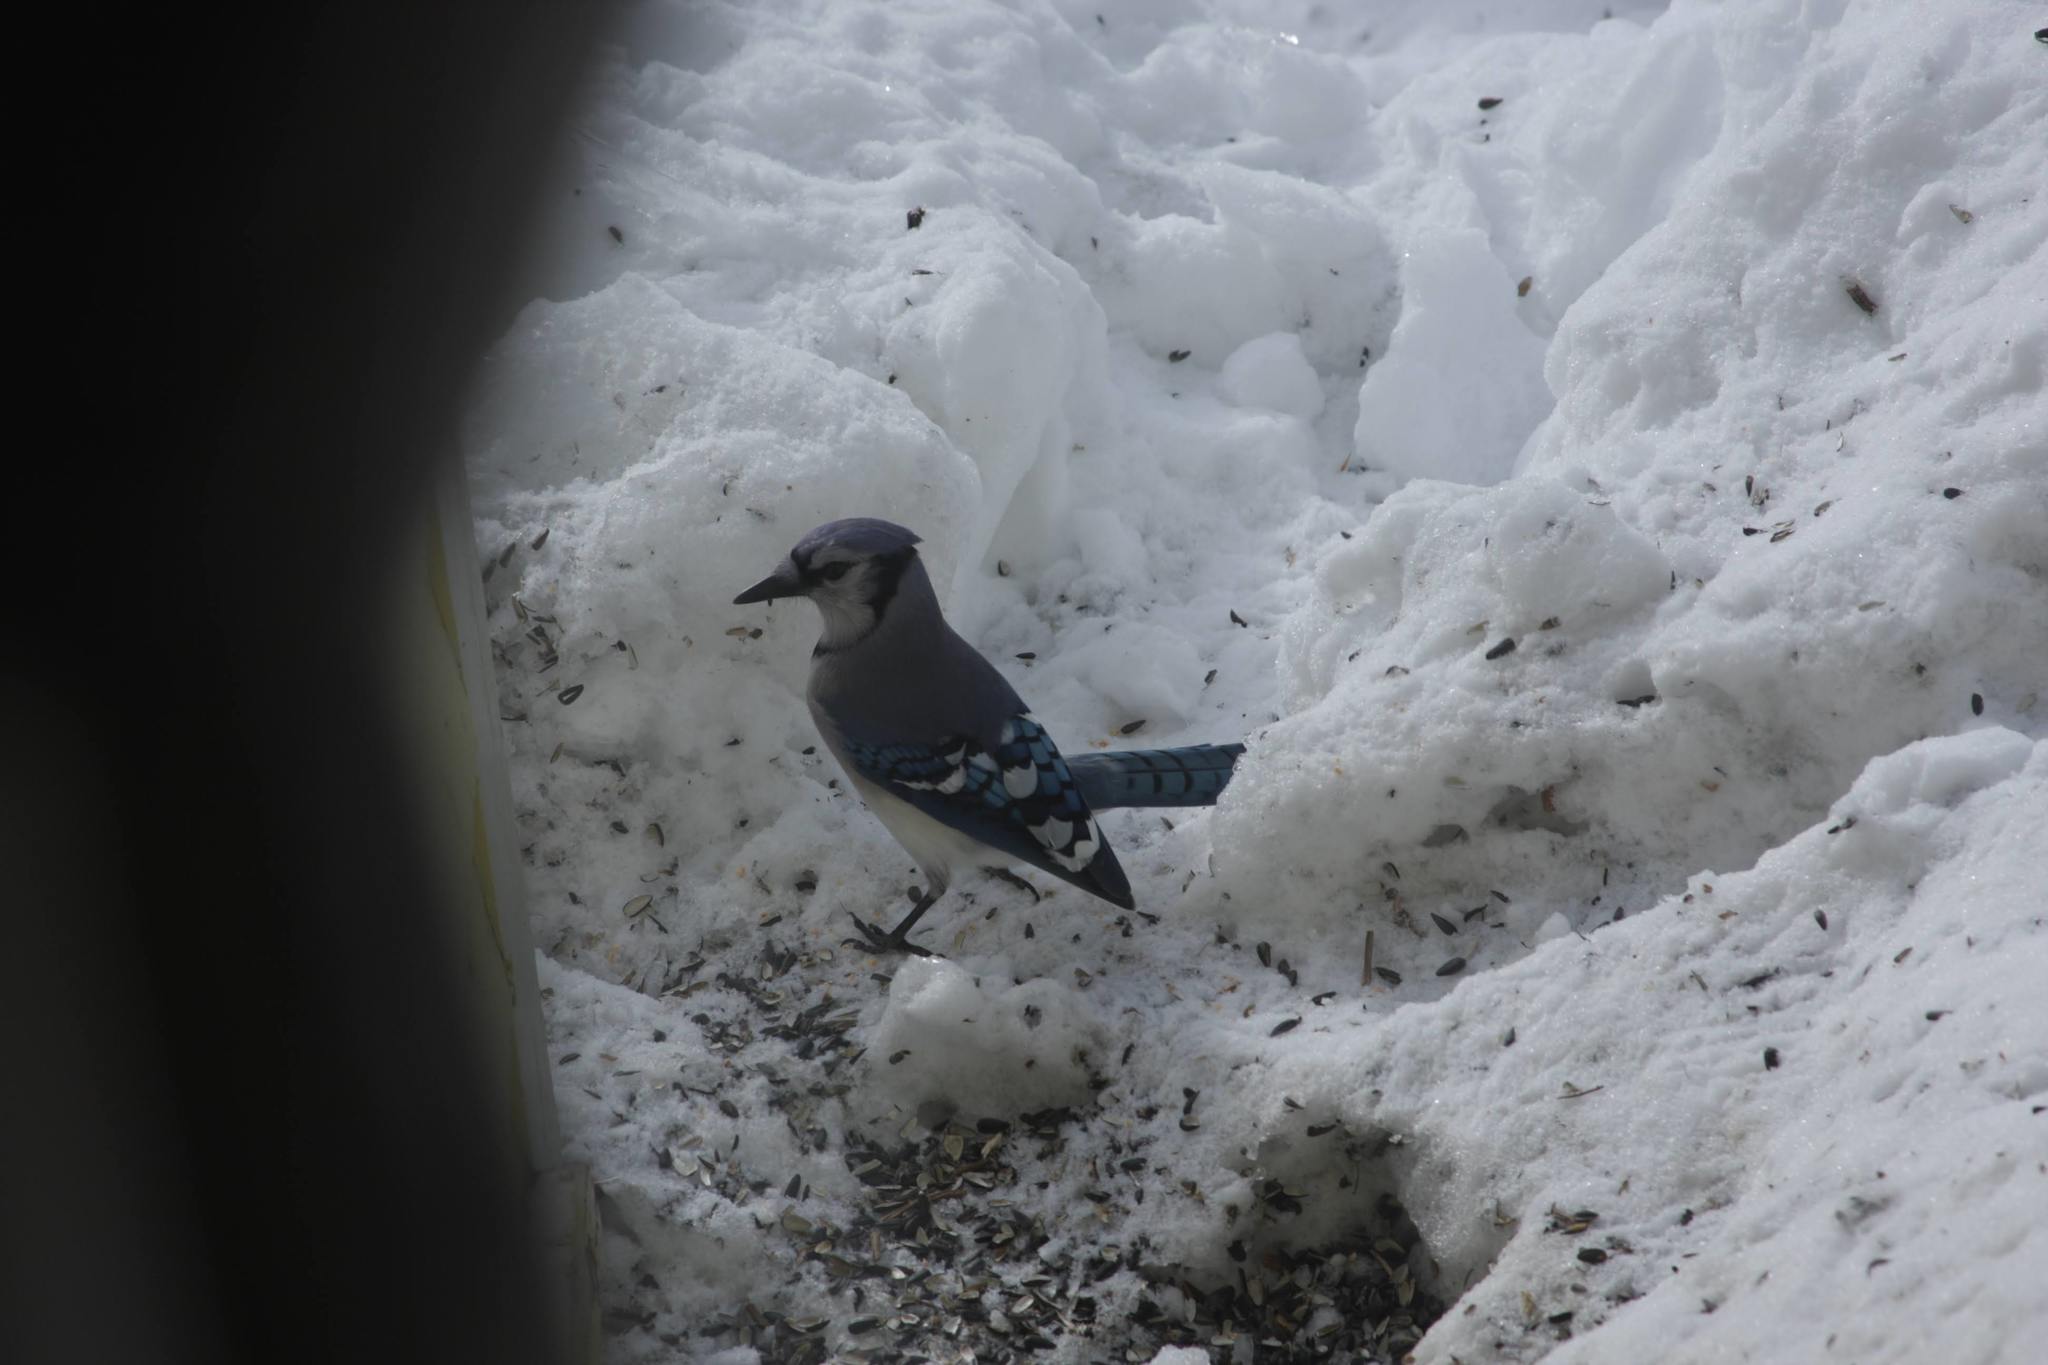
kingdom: Animalia
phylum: Chordata
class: Aves
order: Passeriformes
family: Corvidae
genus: Cyanocitta
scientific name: Cyanocitta cristata
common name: Blue jay
